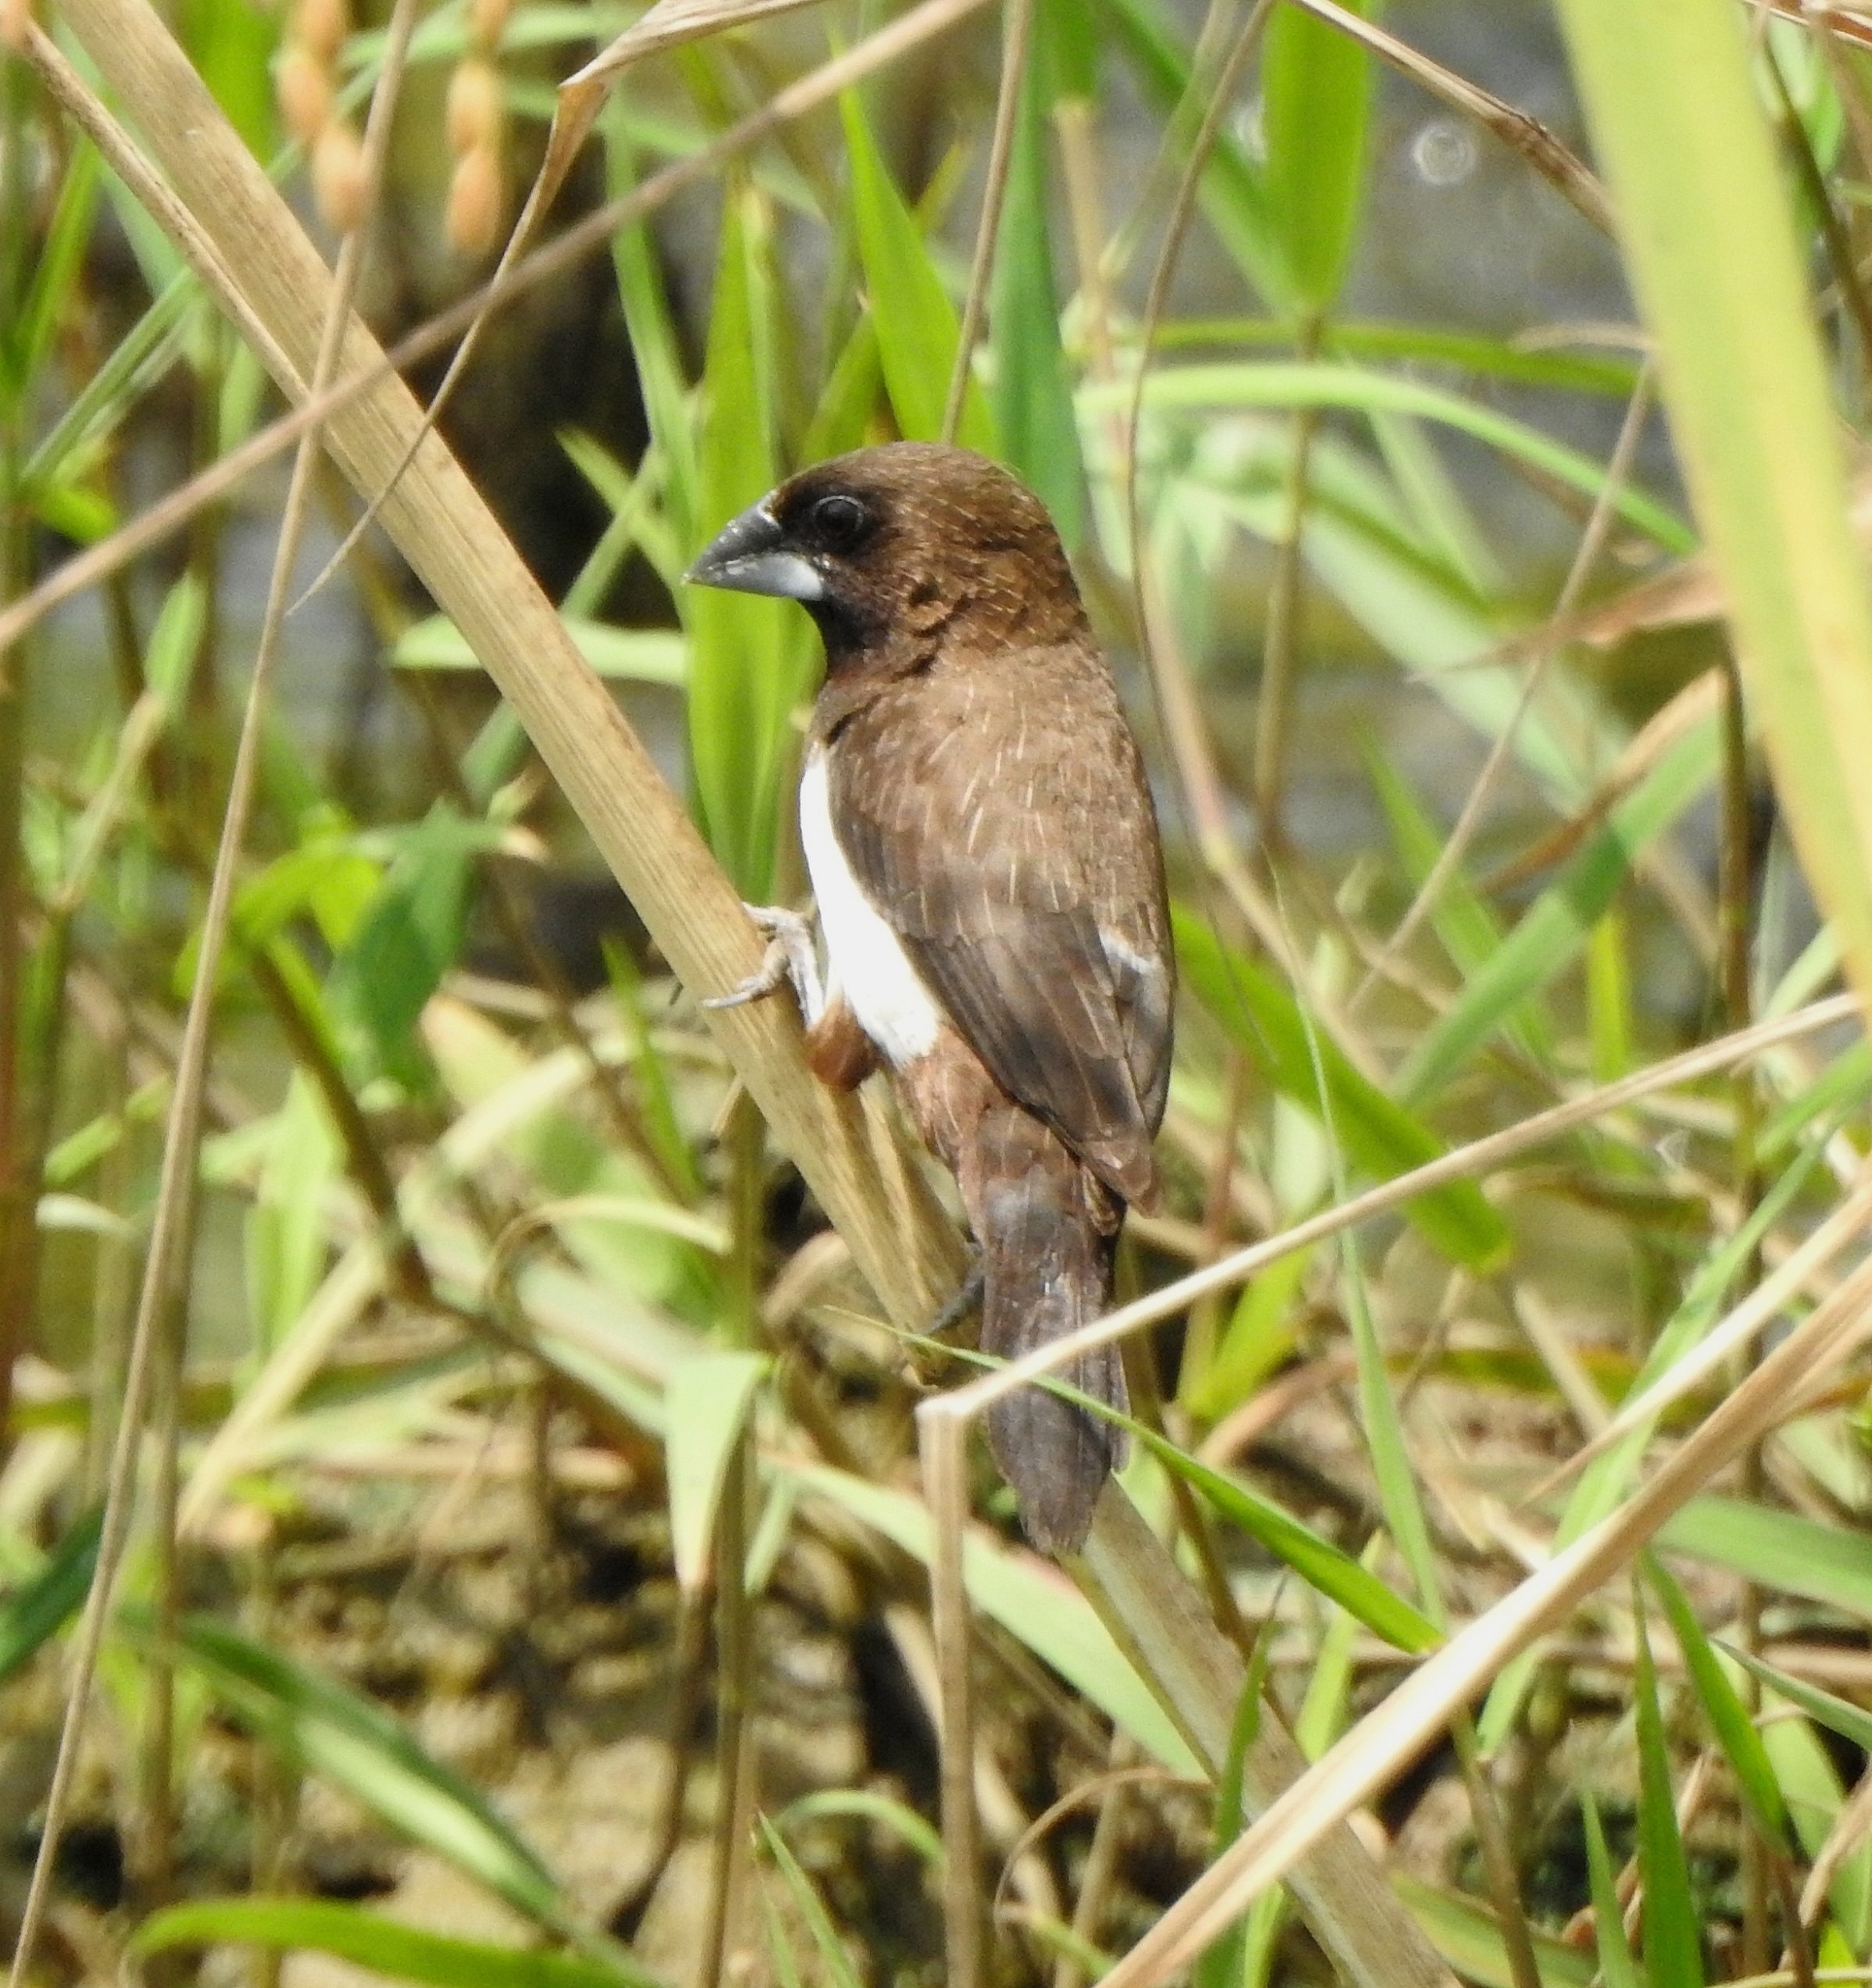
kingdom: Animalia
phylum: Chordata
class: Aves
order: Passeriformes
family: Estrildidae
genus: Lonchura
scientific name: Lonchura striata
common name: White-rumped munia
